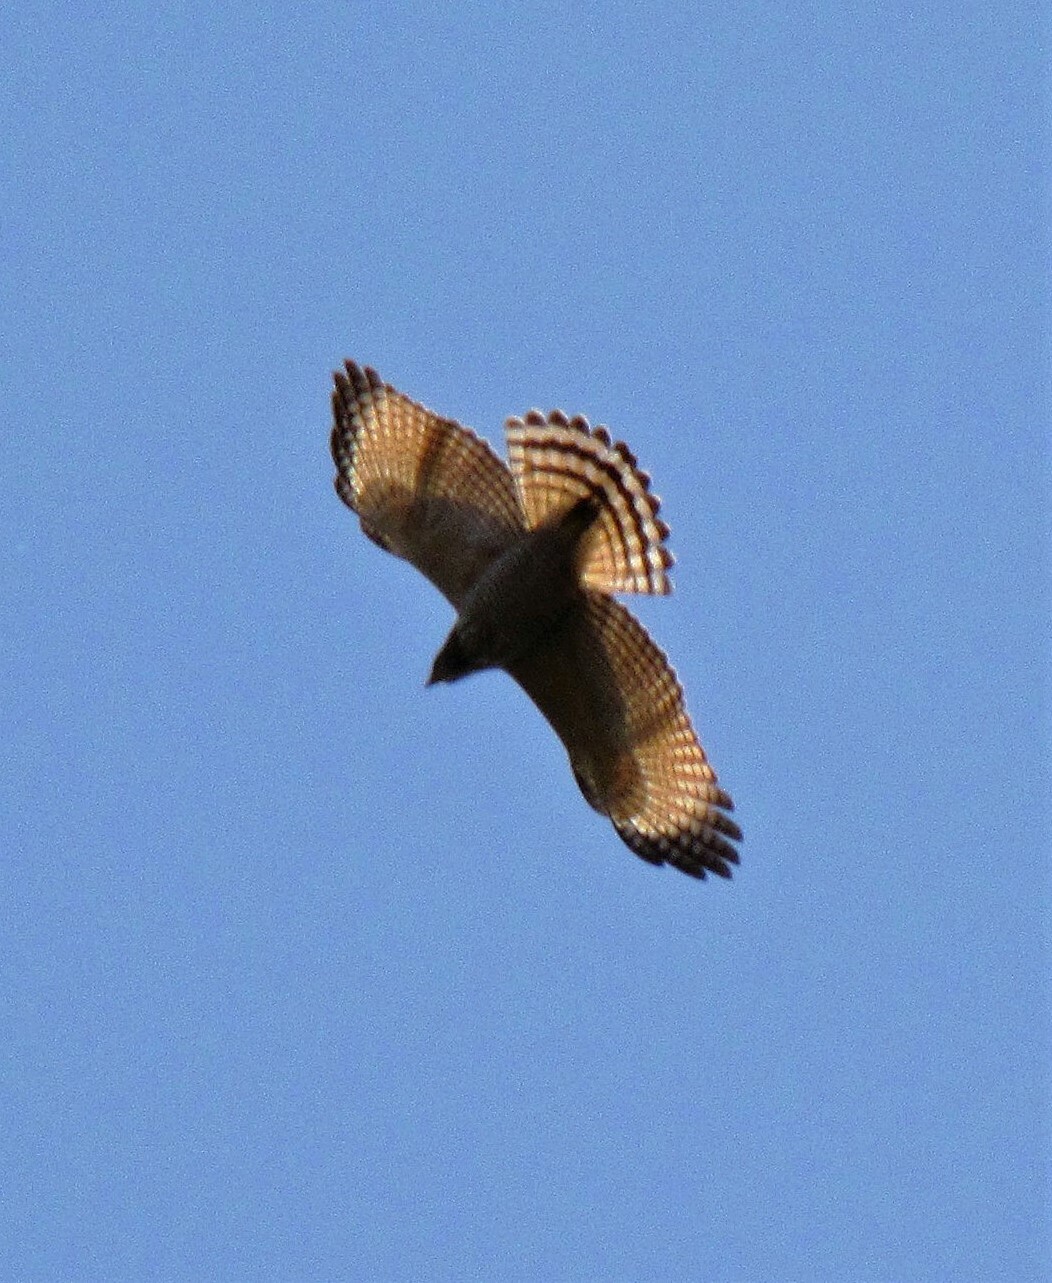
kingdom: Animalia
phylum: Chordata
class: Aves
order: Accipitriformes
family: Accipitridae
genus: Rupornis
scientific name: Rupornis magnirostris
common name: Roadside hawk
